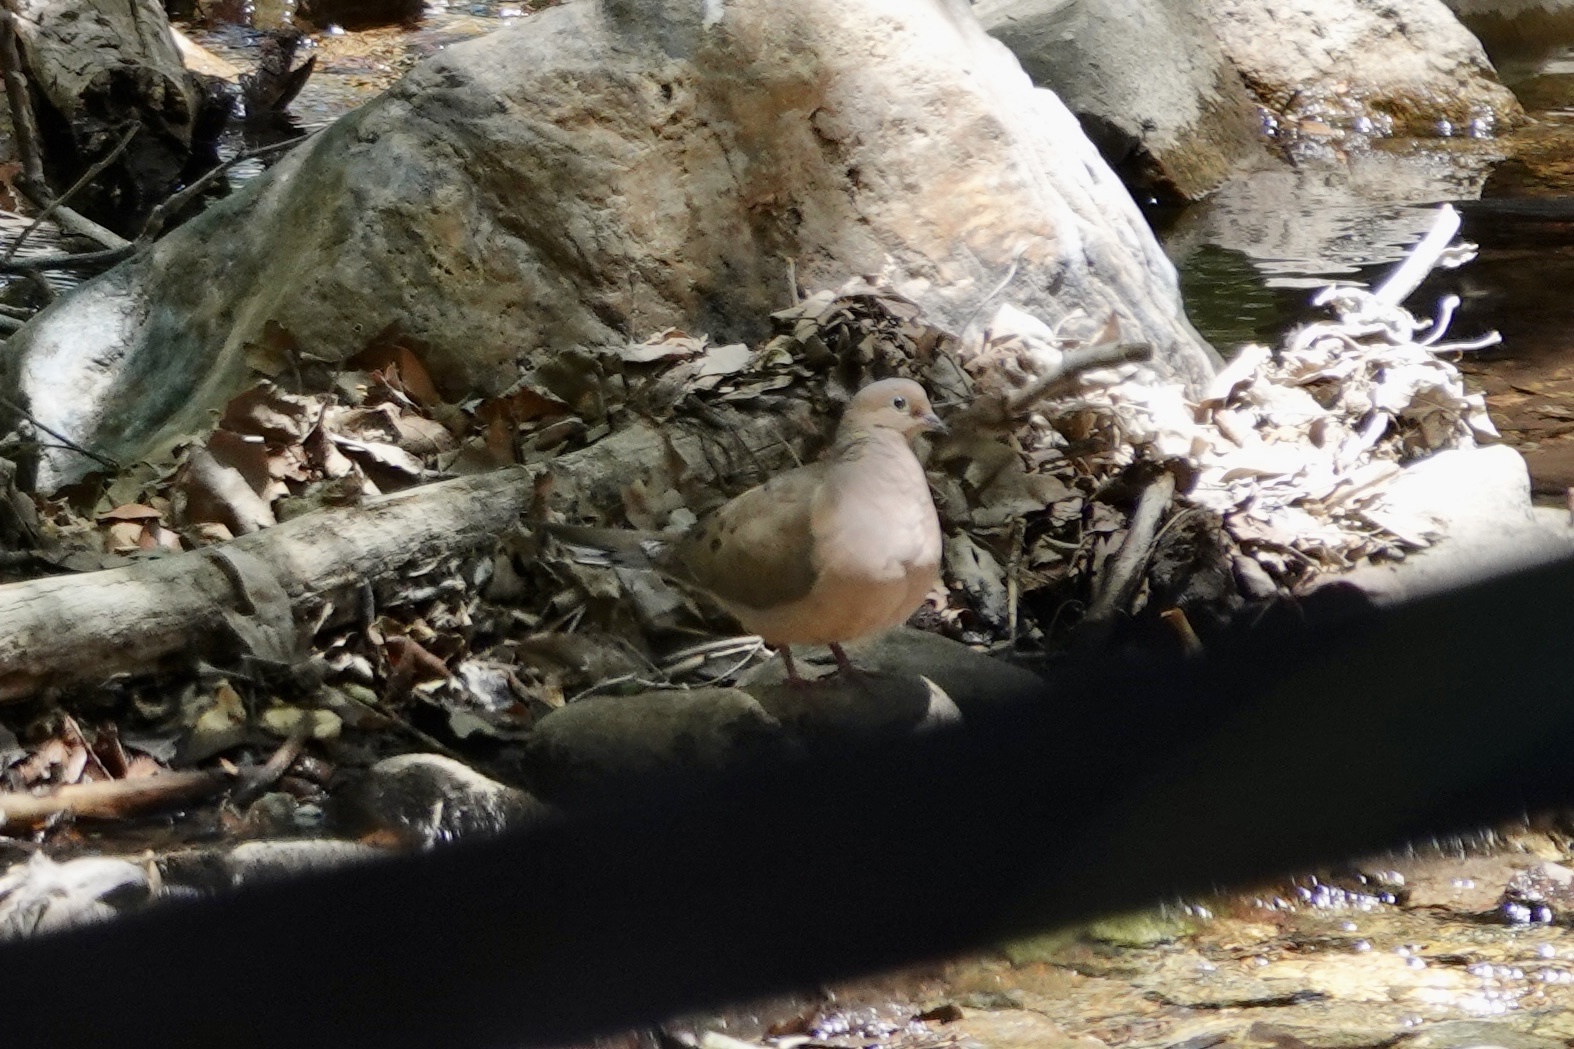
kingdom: Animalia
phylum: Chordata
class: Aves
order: Columbiformes
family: Columbidae
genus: Zenaida
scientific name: Zenaida macroura
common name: Mourning dove
